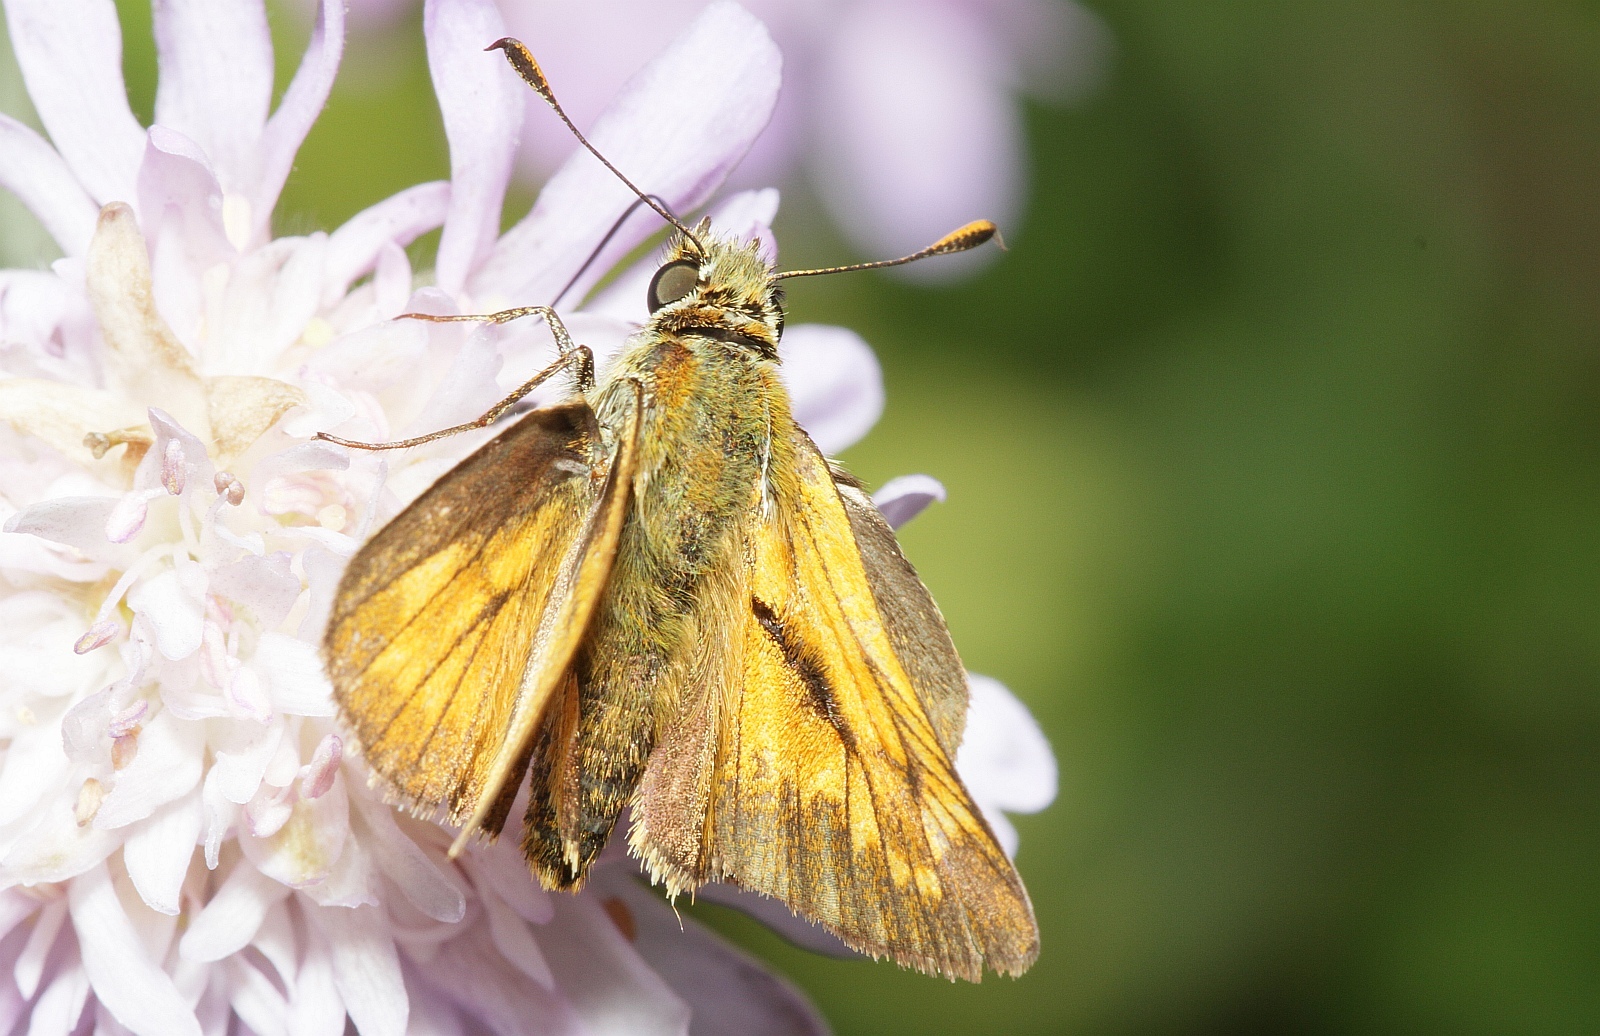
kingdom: Animalia
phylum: Arthropoda
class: Insecta
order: Lepidoptera
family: Hesperiidae
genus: Ochlodes
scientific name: Ochlodes venata
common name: Large skipper
